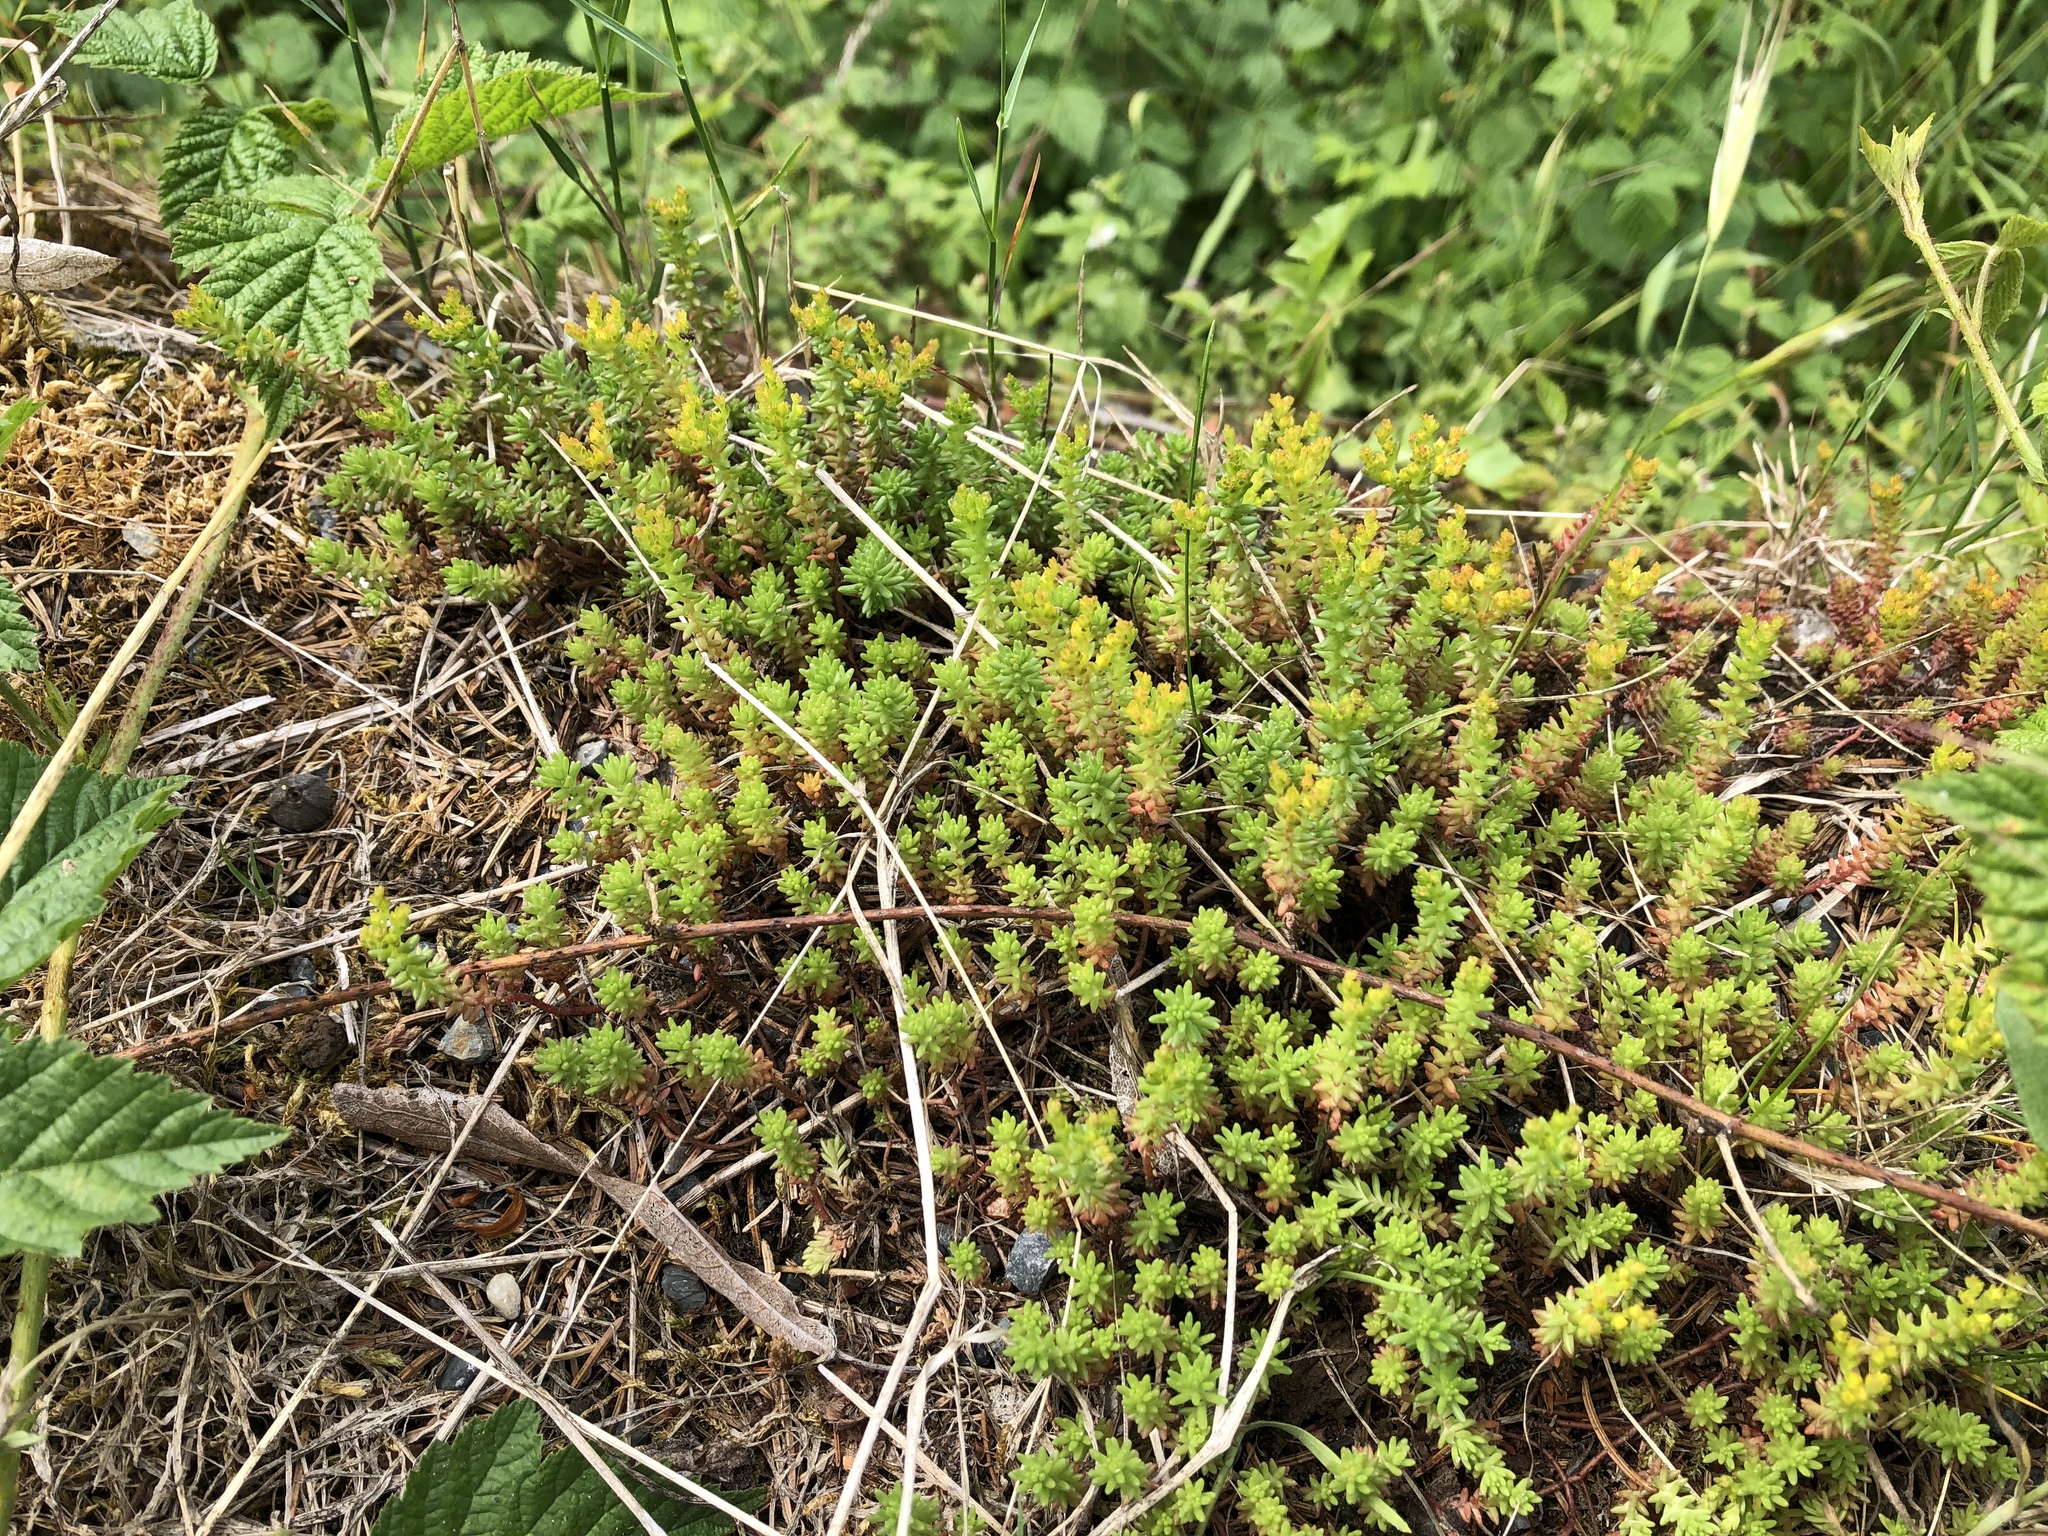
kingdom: Plantae
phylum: Tracheophyta
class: Magnoliopsida
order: Saxifragales
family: Crassulaceae
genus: Sedum
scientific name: Sedum sexangulare
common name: Tasteless stonecrop
